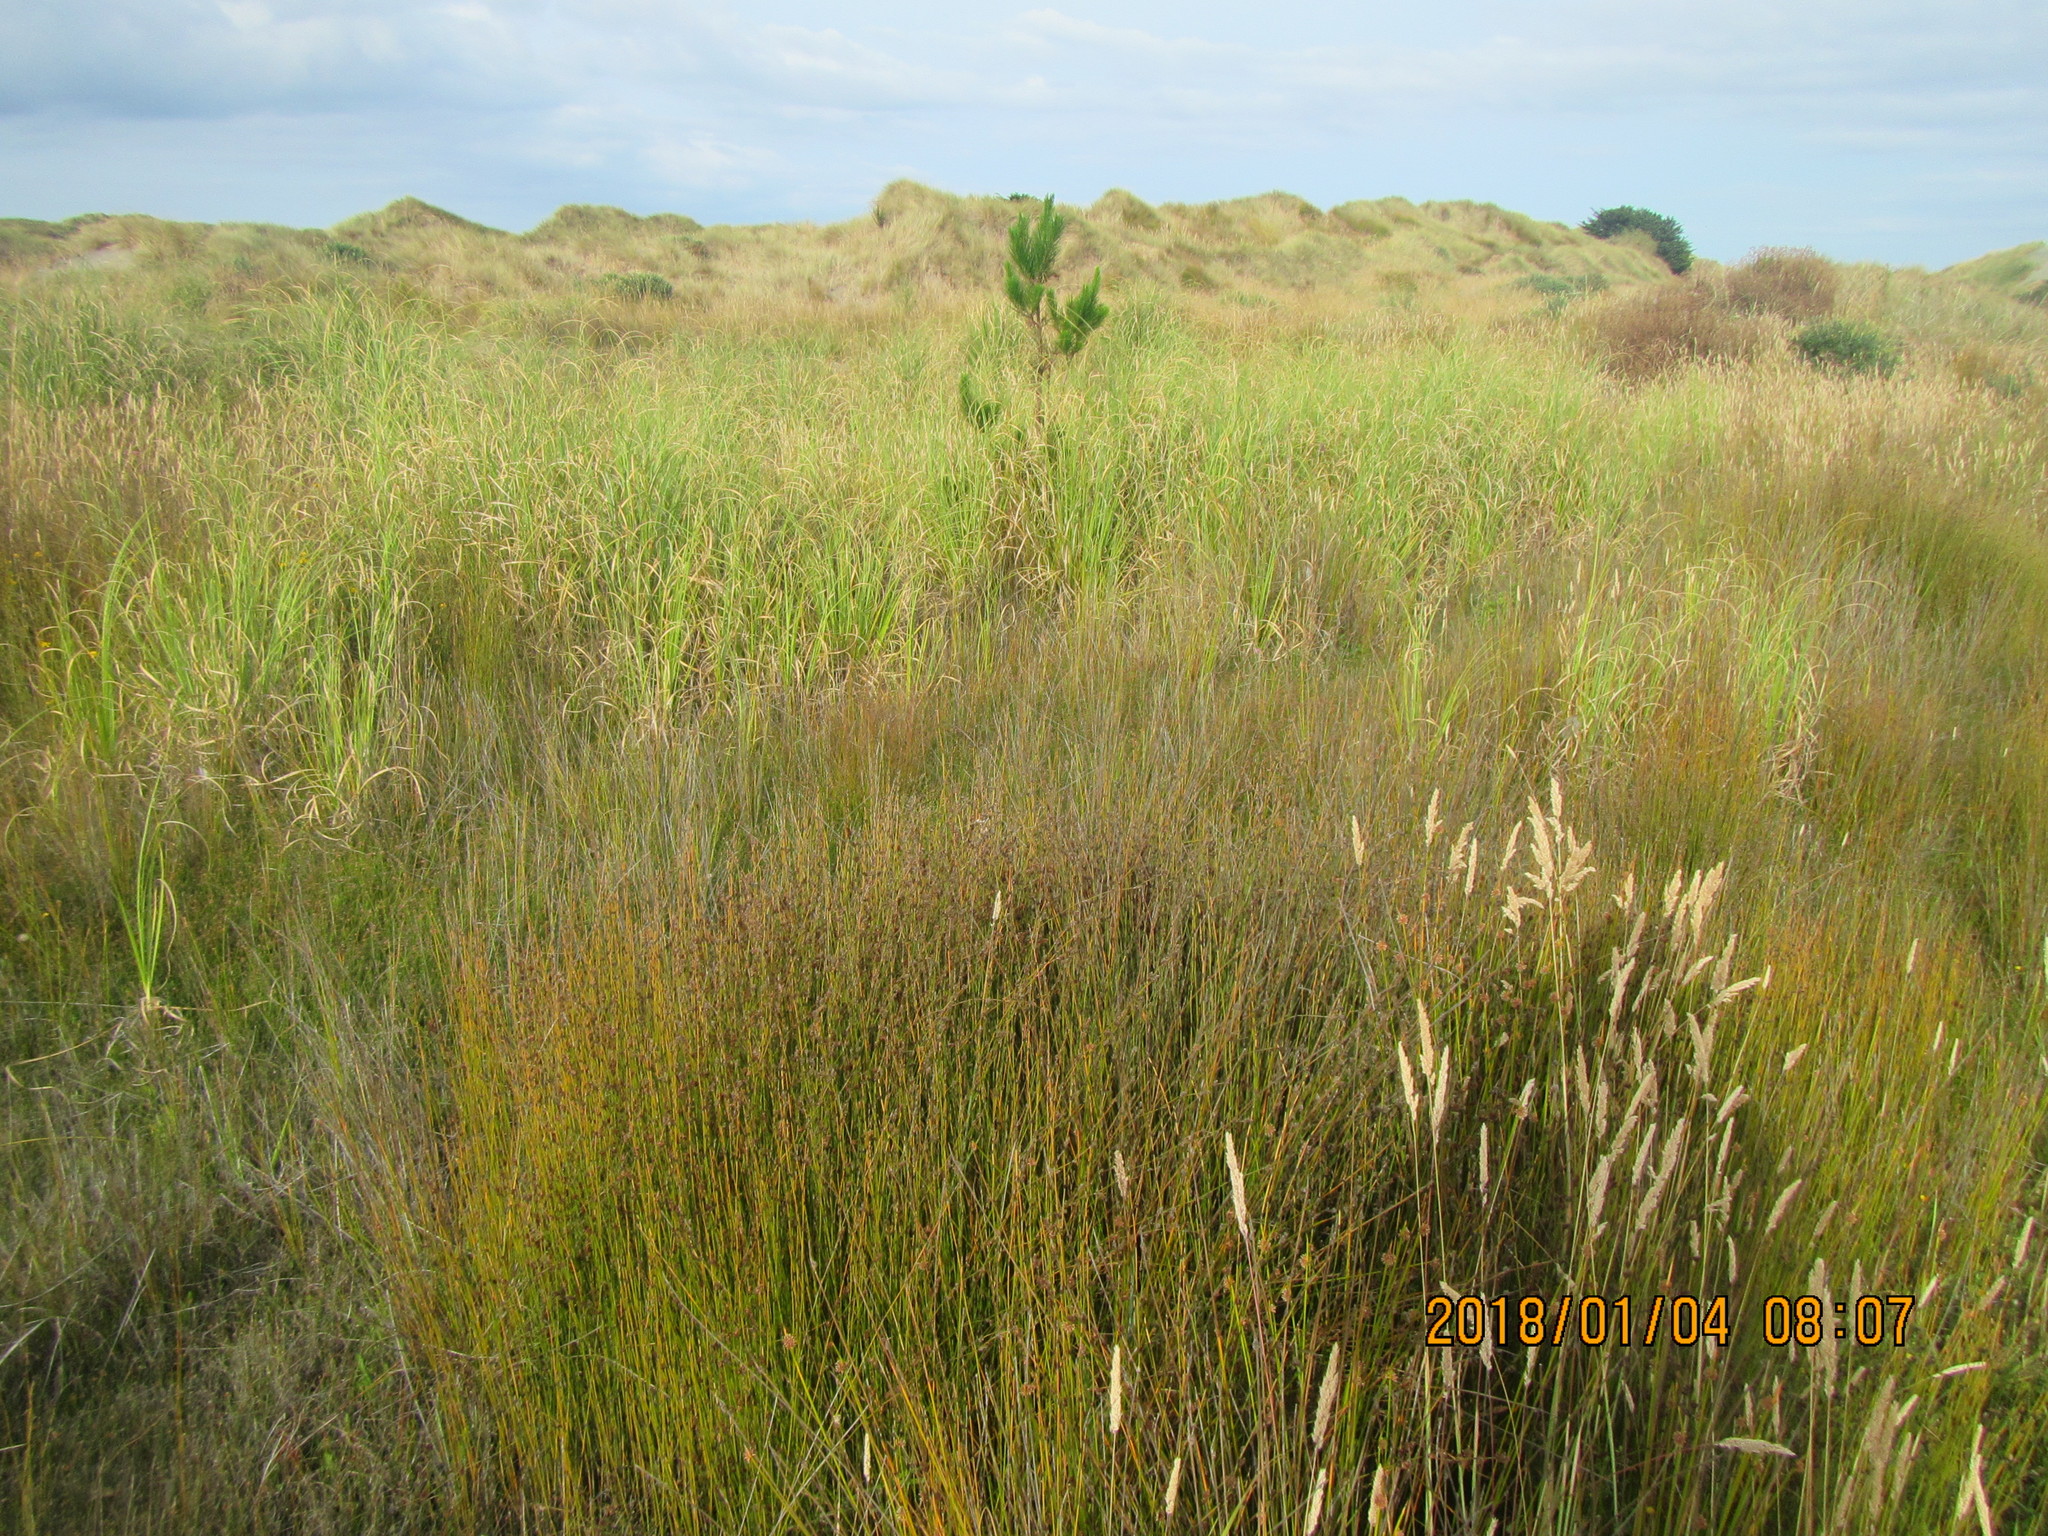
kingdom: Plantae
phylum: Tracheophyta
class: Pinopsida
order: Pinales
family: Pinaceae
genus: Pinus
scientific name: Pinus radiata
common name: Monterey pine
